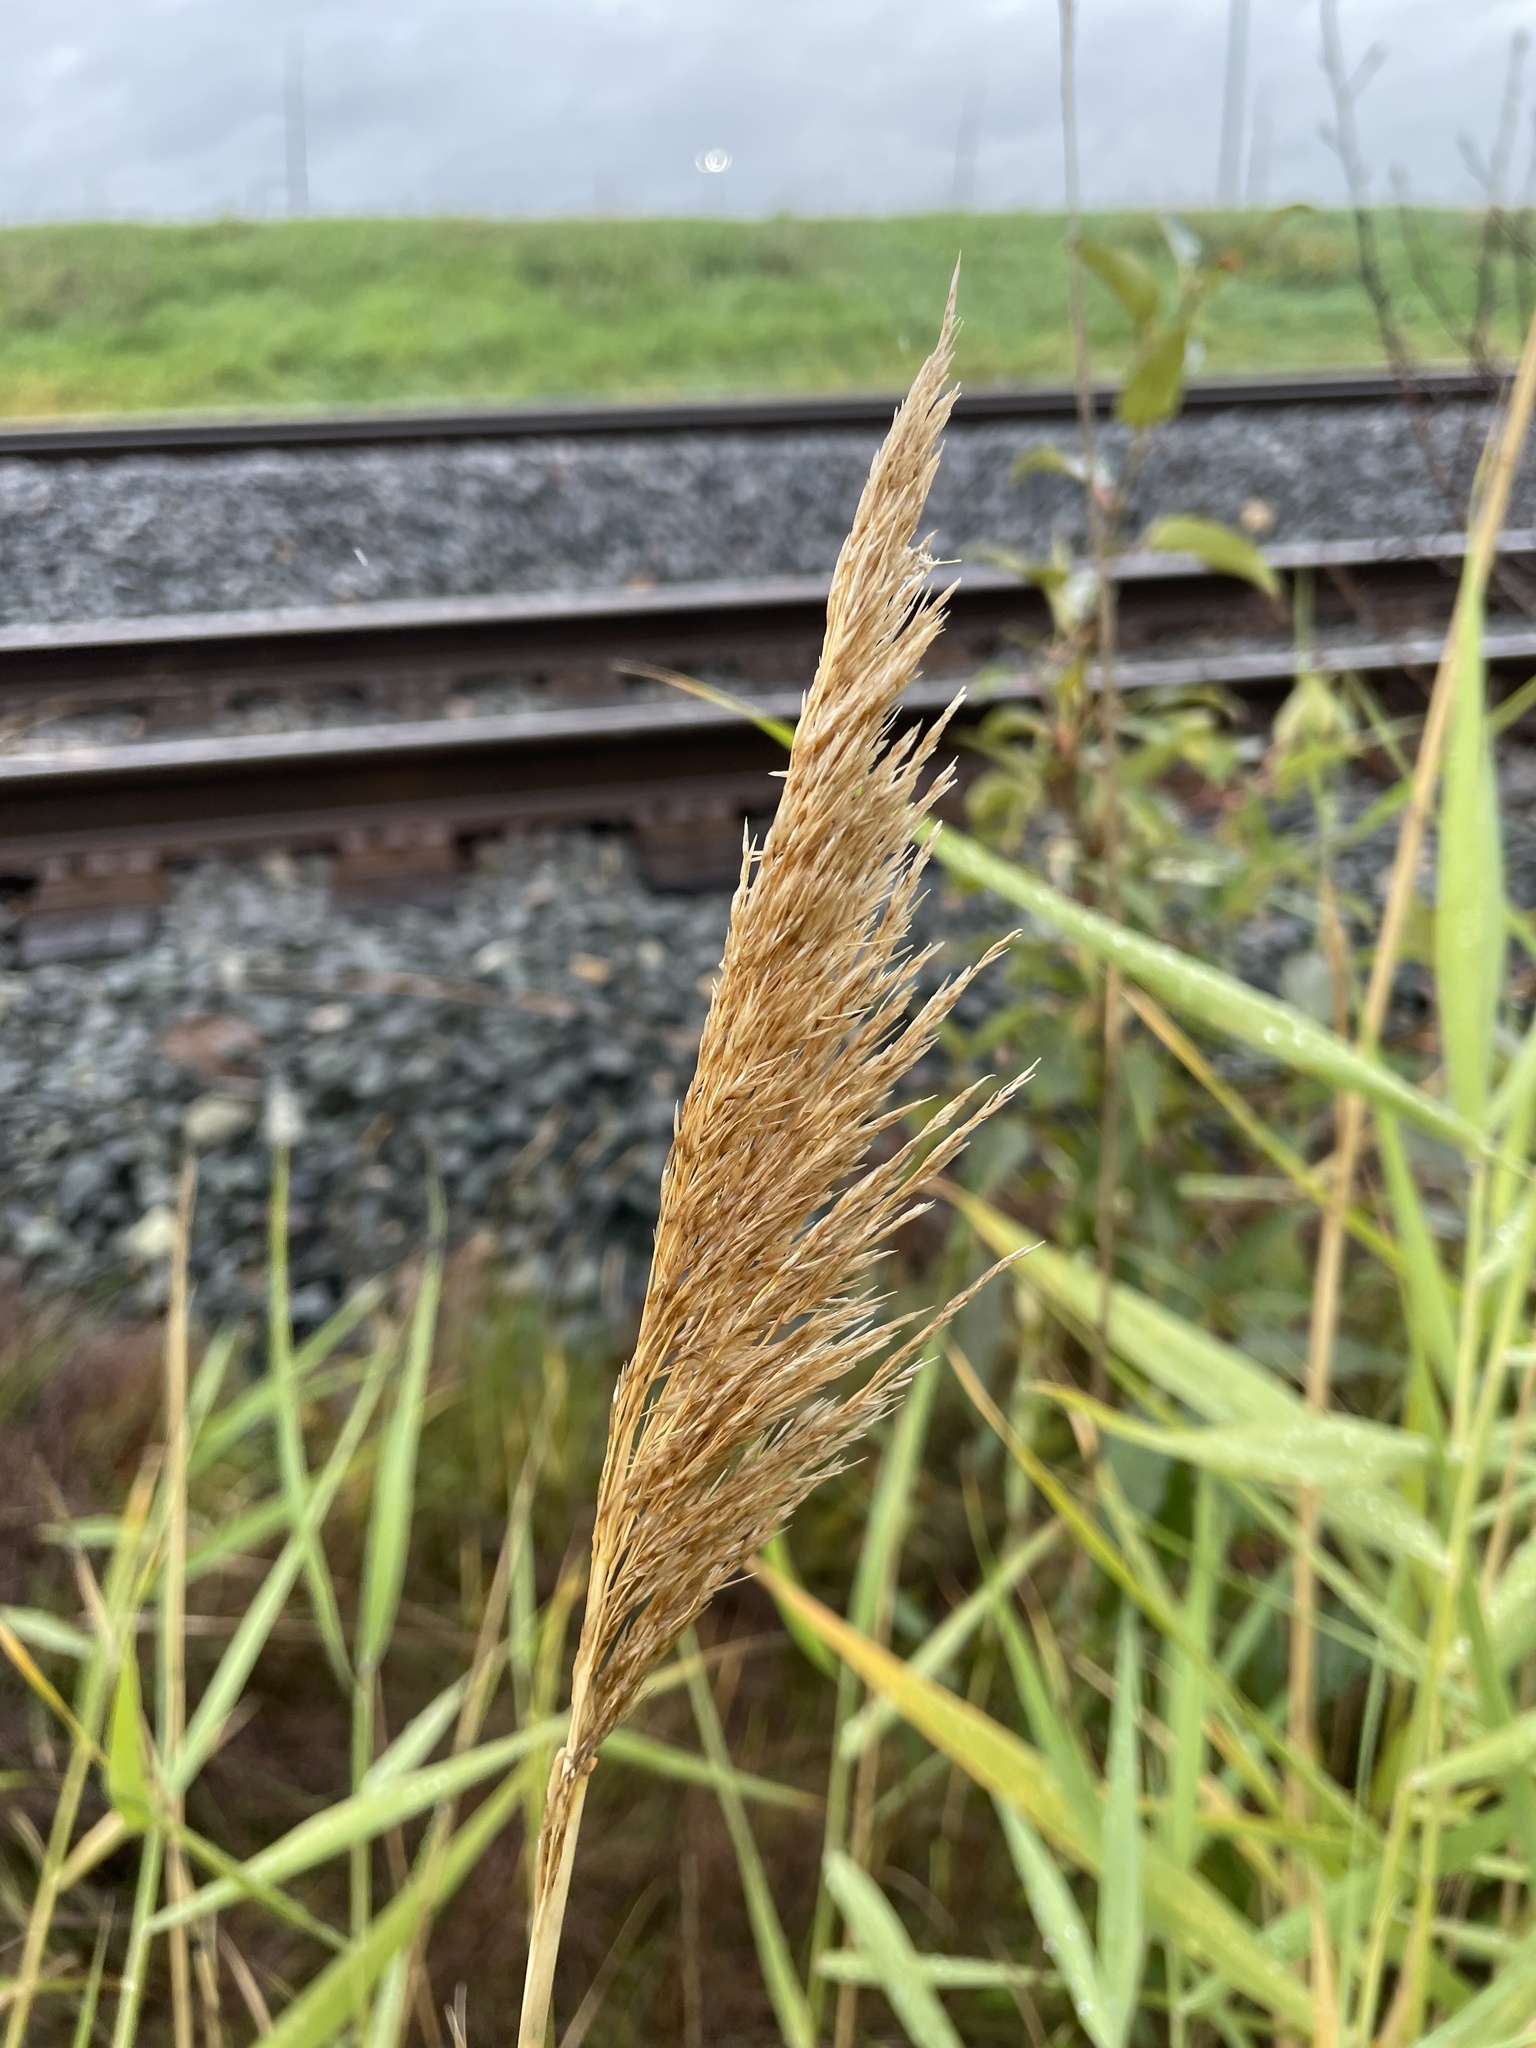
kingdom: Plantae
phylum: Tracheophyta
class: Liliopsida
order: Poales
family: Poaceae
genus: Phragmites
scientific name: Phragmites australis
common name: Common reed
